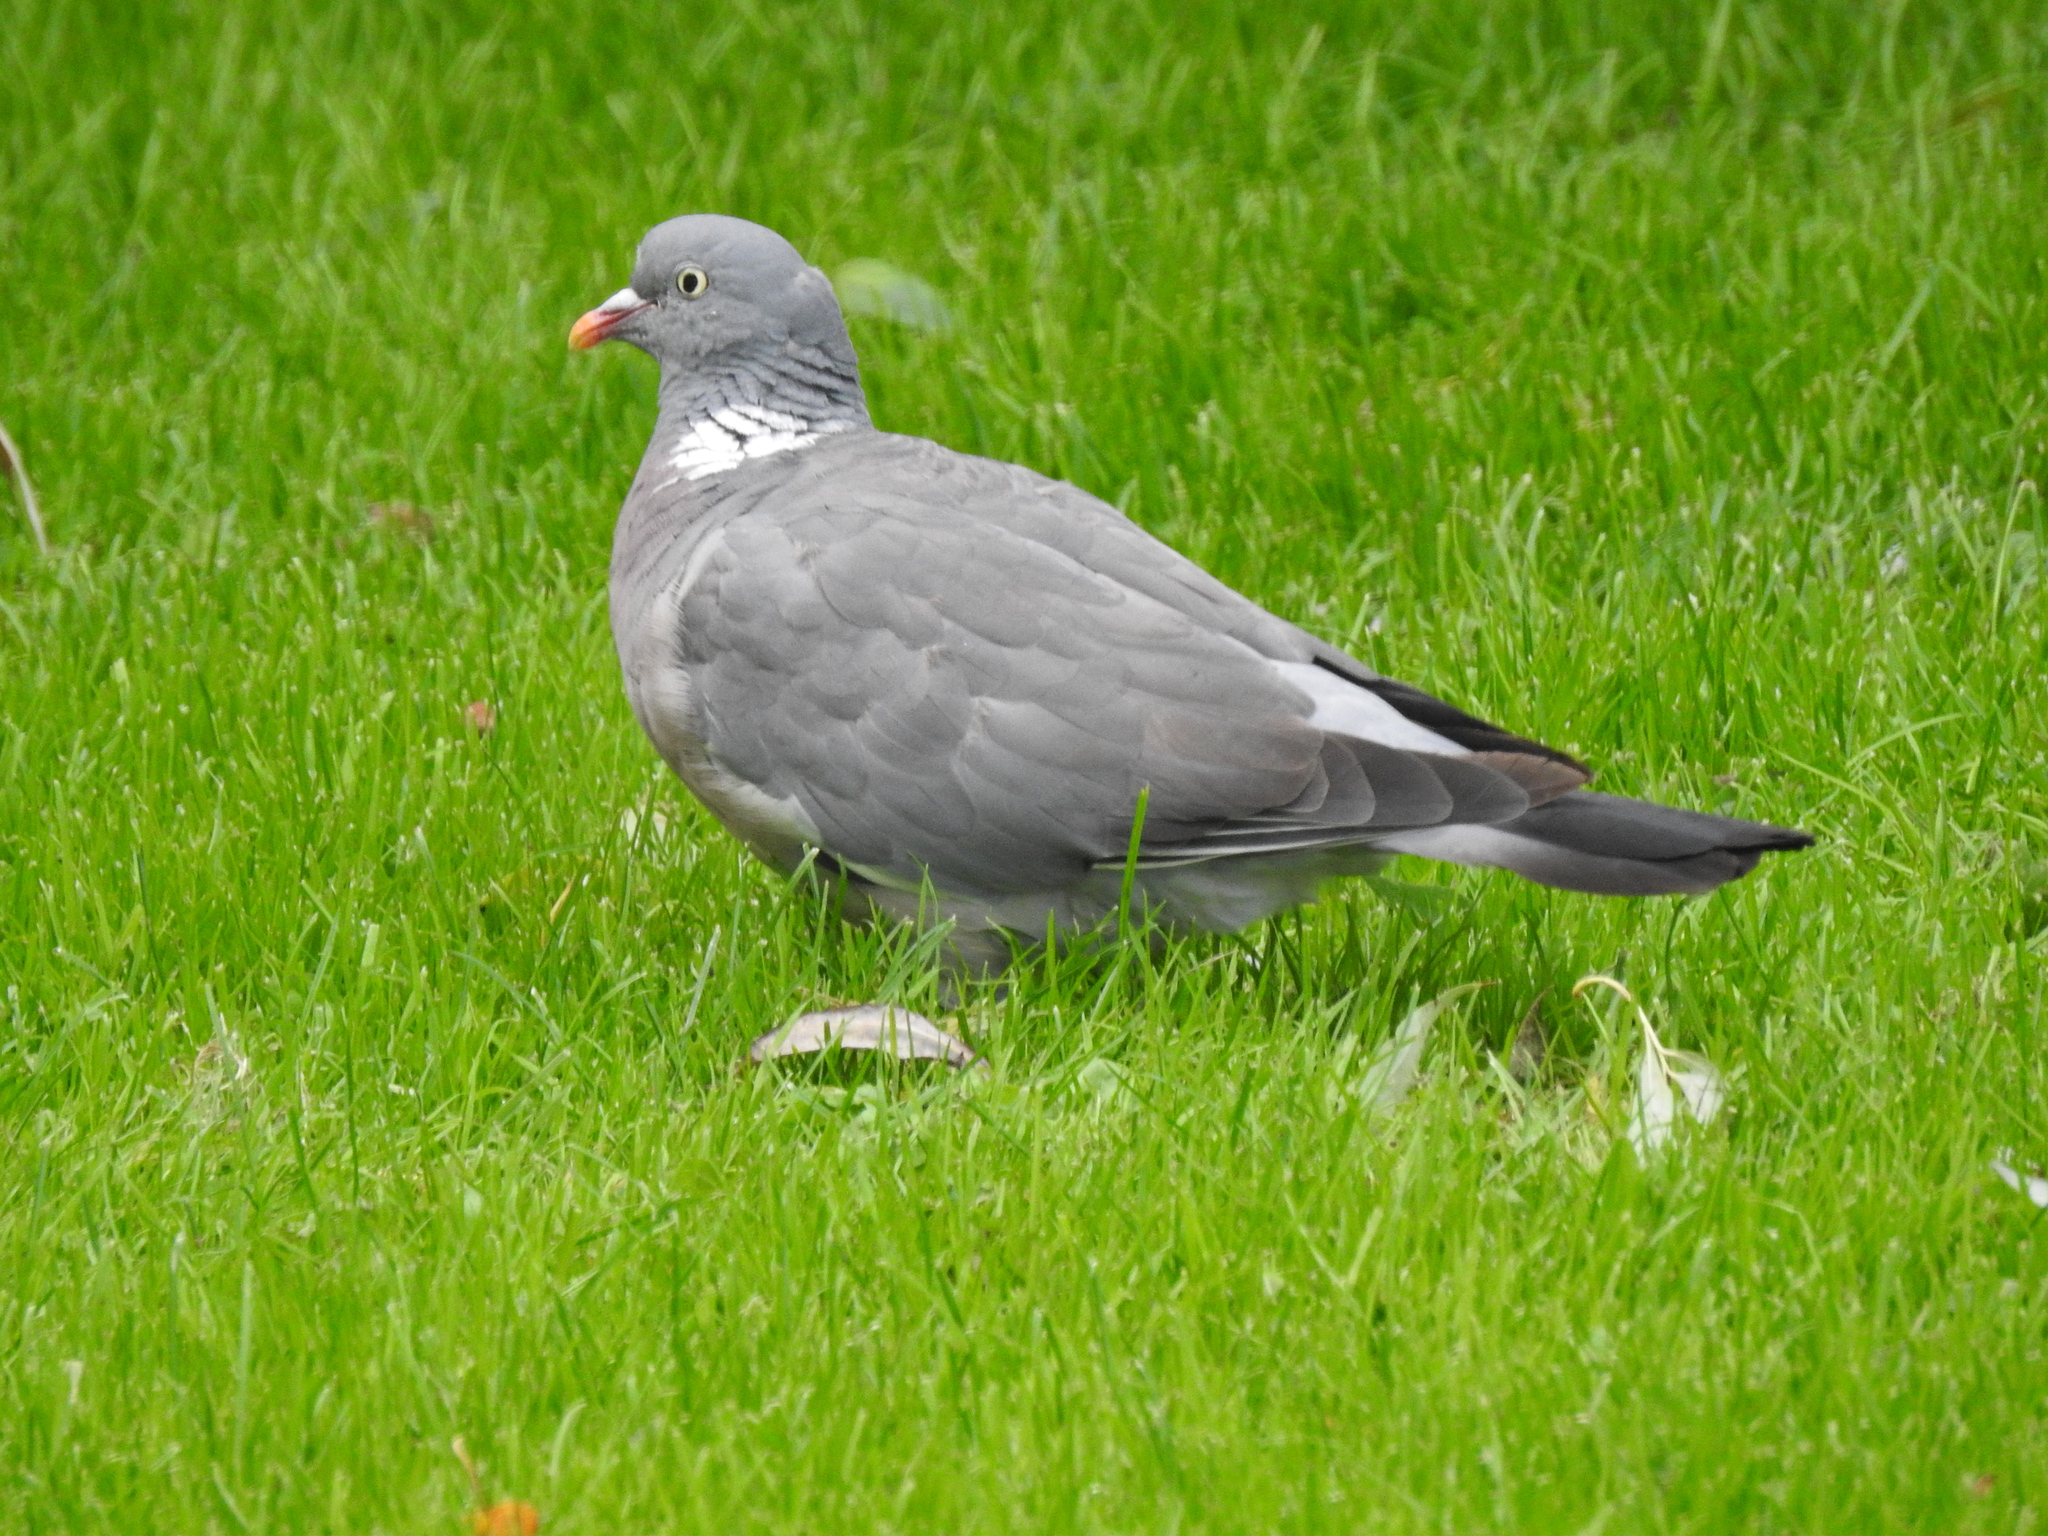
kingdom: Animalia
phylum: Chordata
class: Aves
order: Columbiformes
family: Columbidae
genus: Columba
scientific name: Columba palumbus
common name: Common wood pigeon
